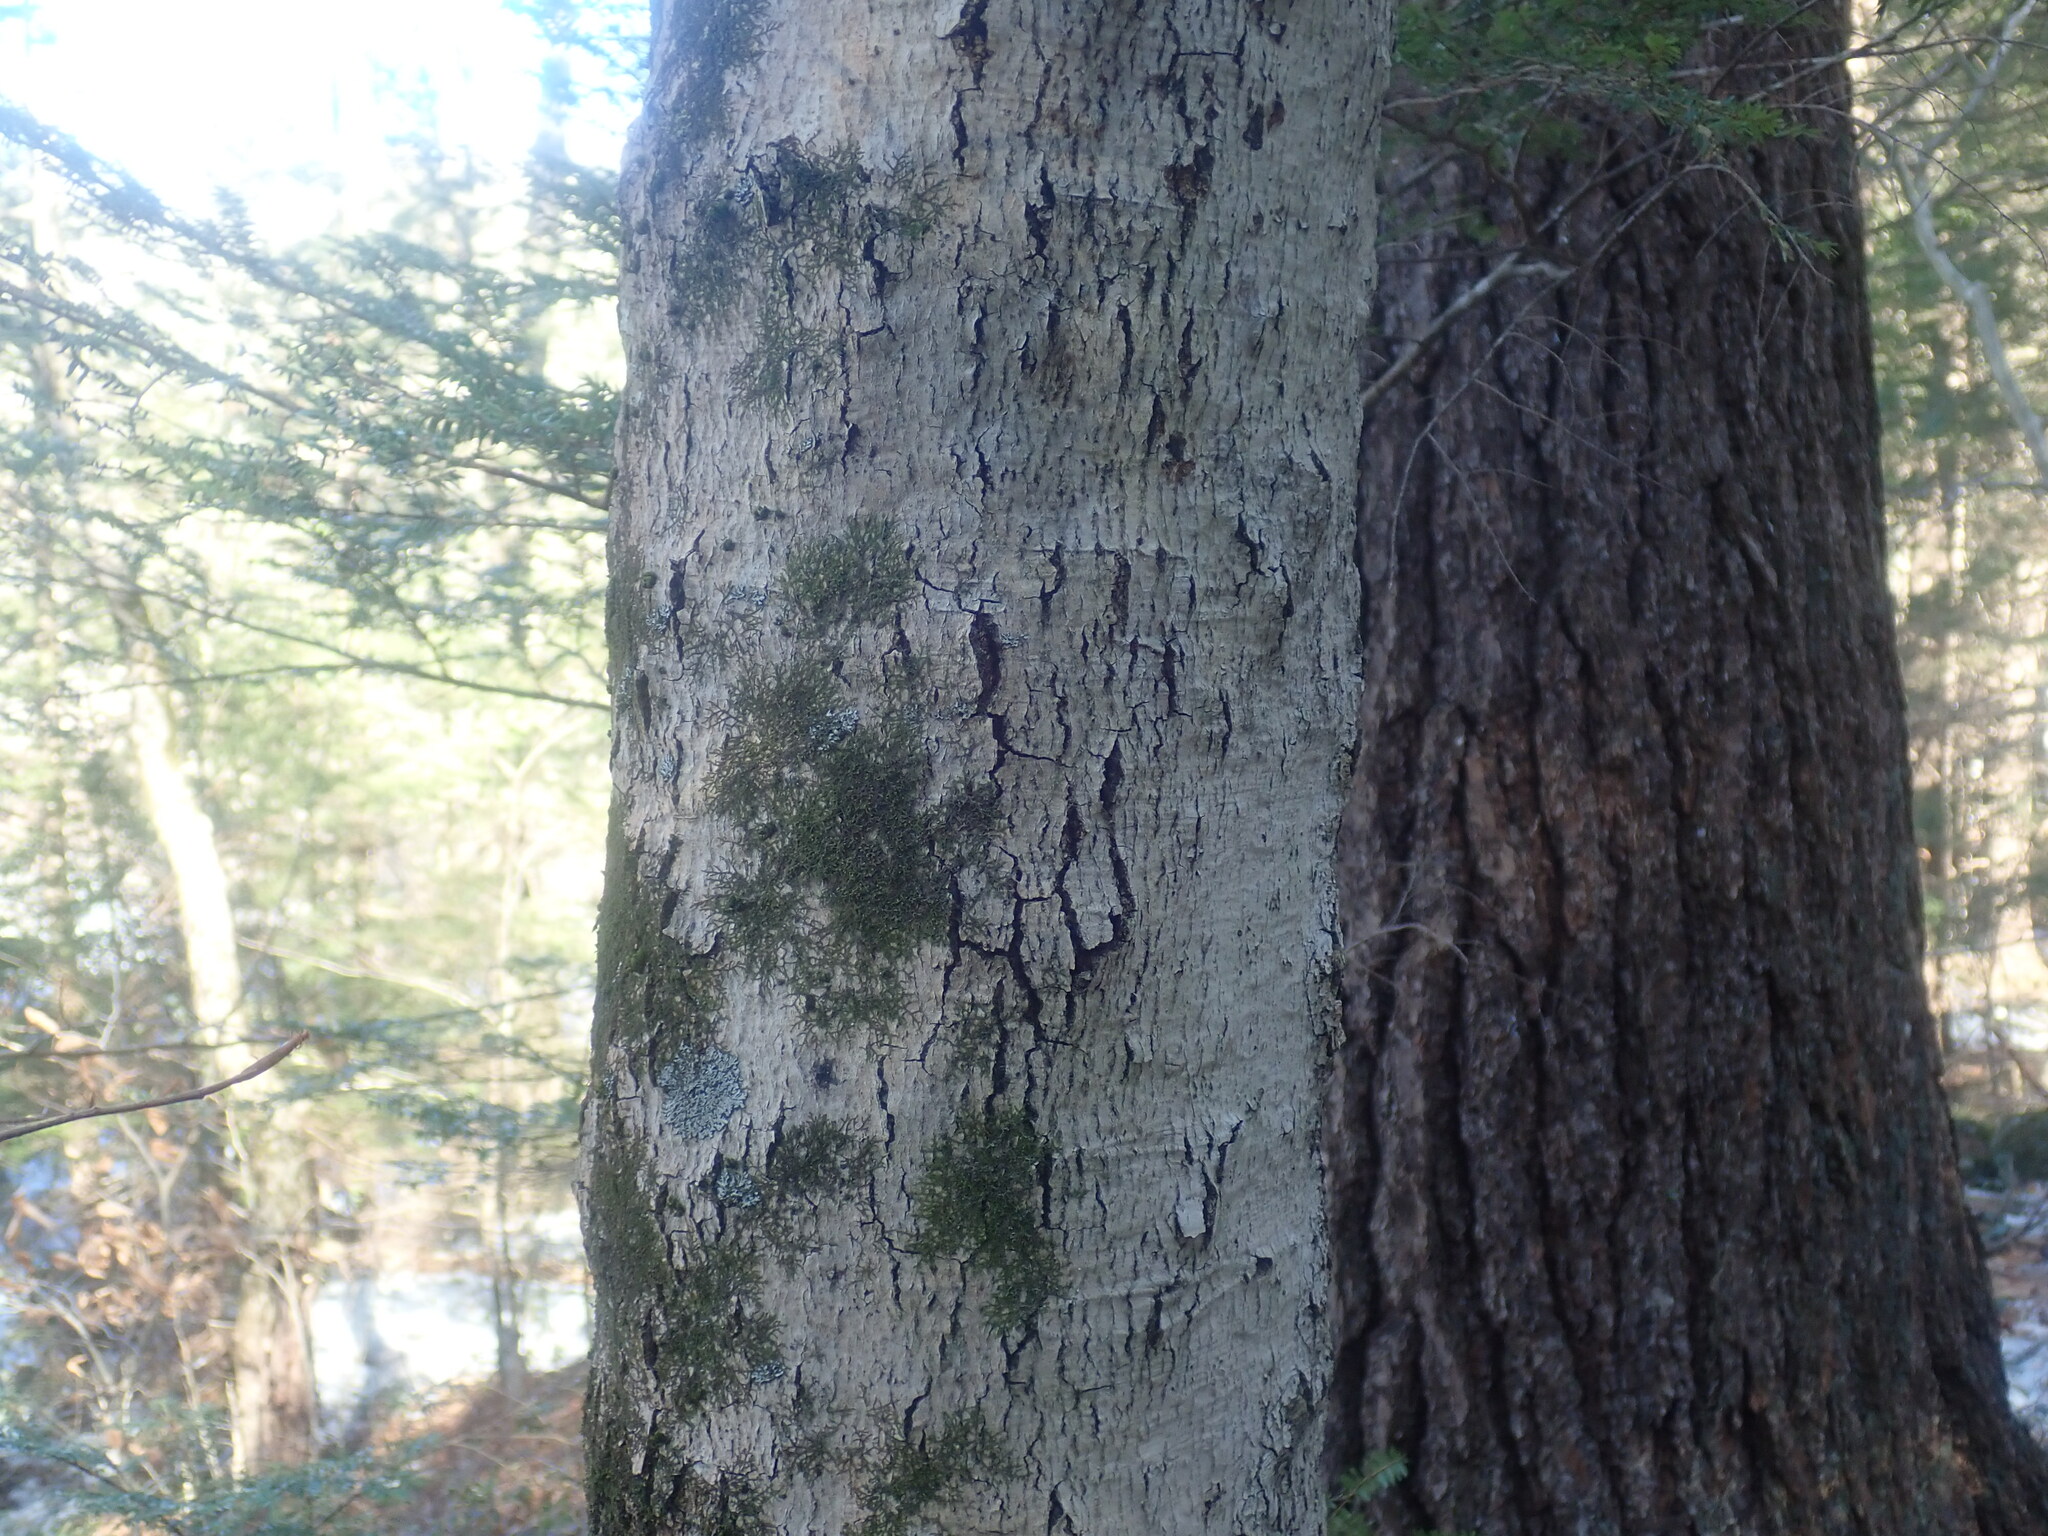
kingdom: Fungi
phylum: Ascomycota
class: Sordariomycetes
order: Hypocreales
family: Nectriaceae
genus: Neonectria
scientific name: Neonectria faginata
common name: Beech bark canker
